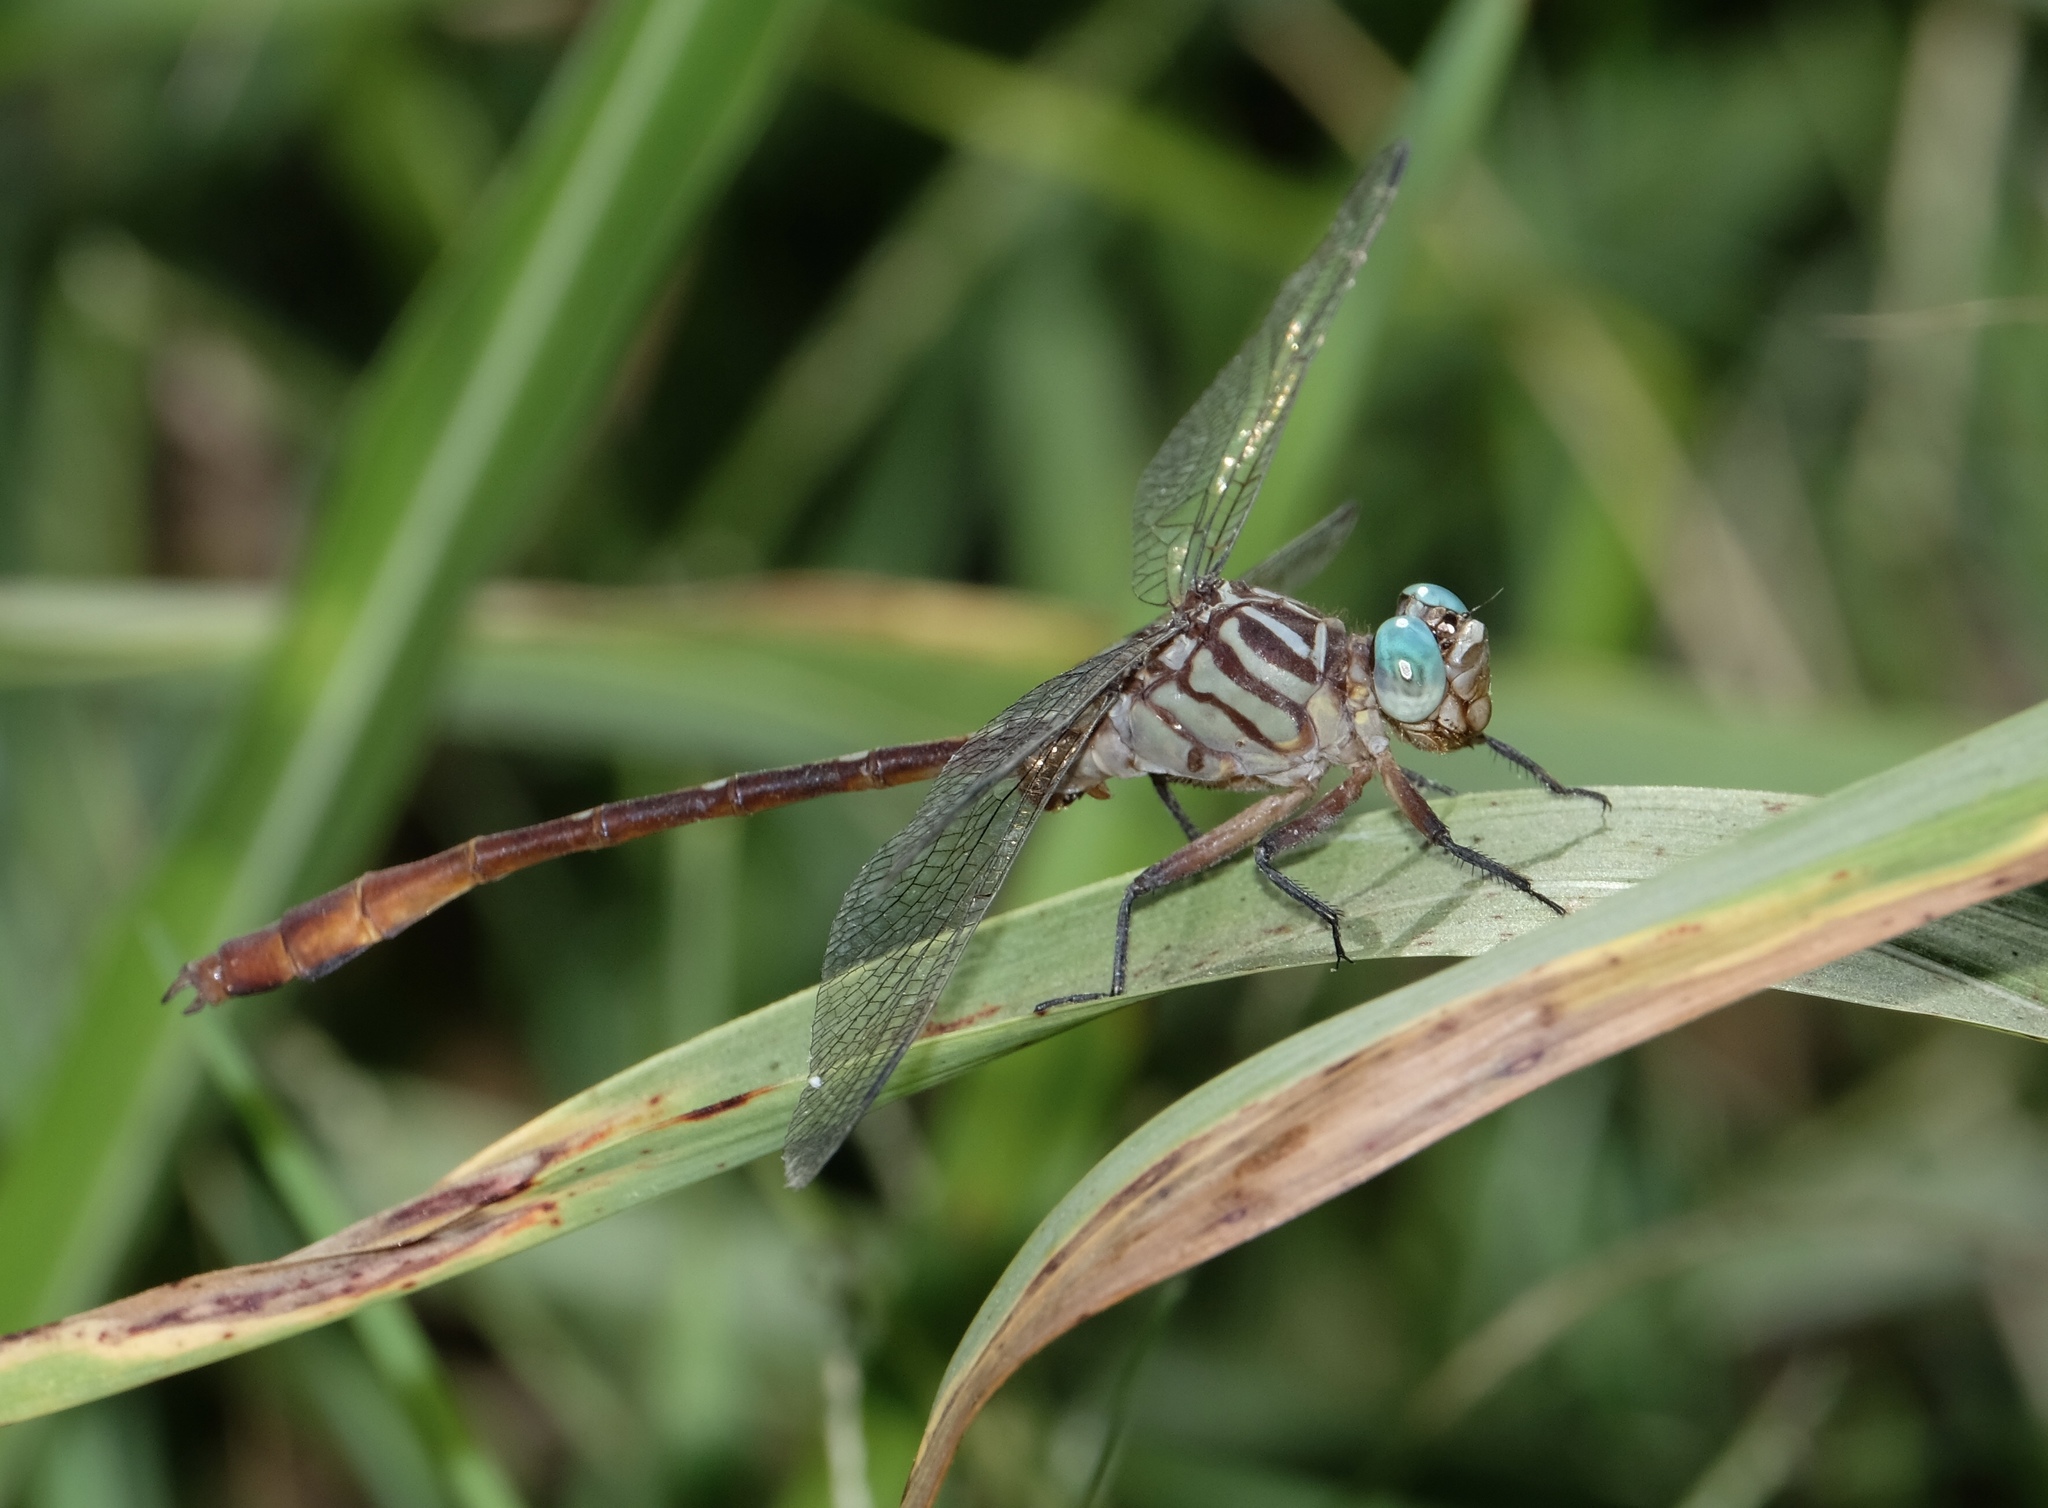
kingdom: Animalia
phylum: Arthropoda
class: Insecta
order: Odonata
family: Gomphidae
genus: Stylurus
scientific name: Stylurus plagiatus
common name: Russet-tipped clubtail
